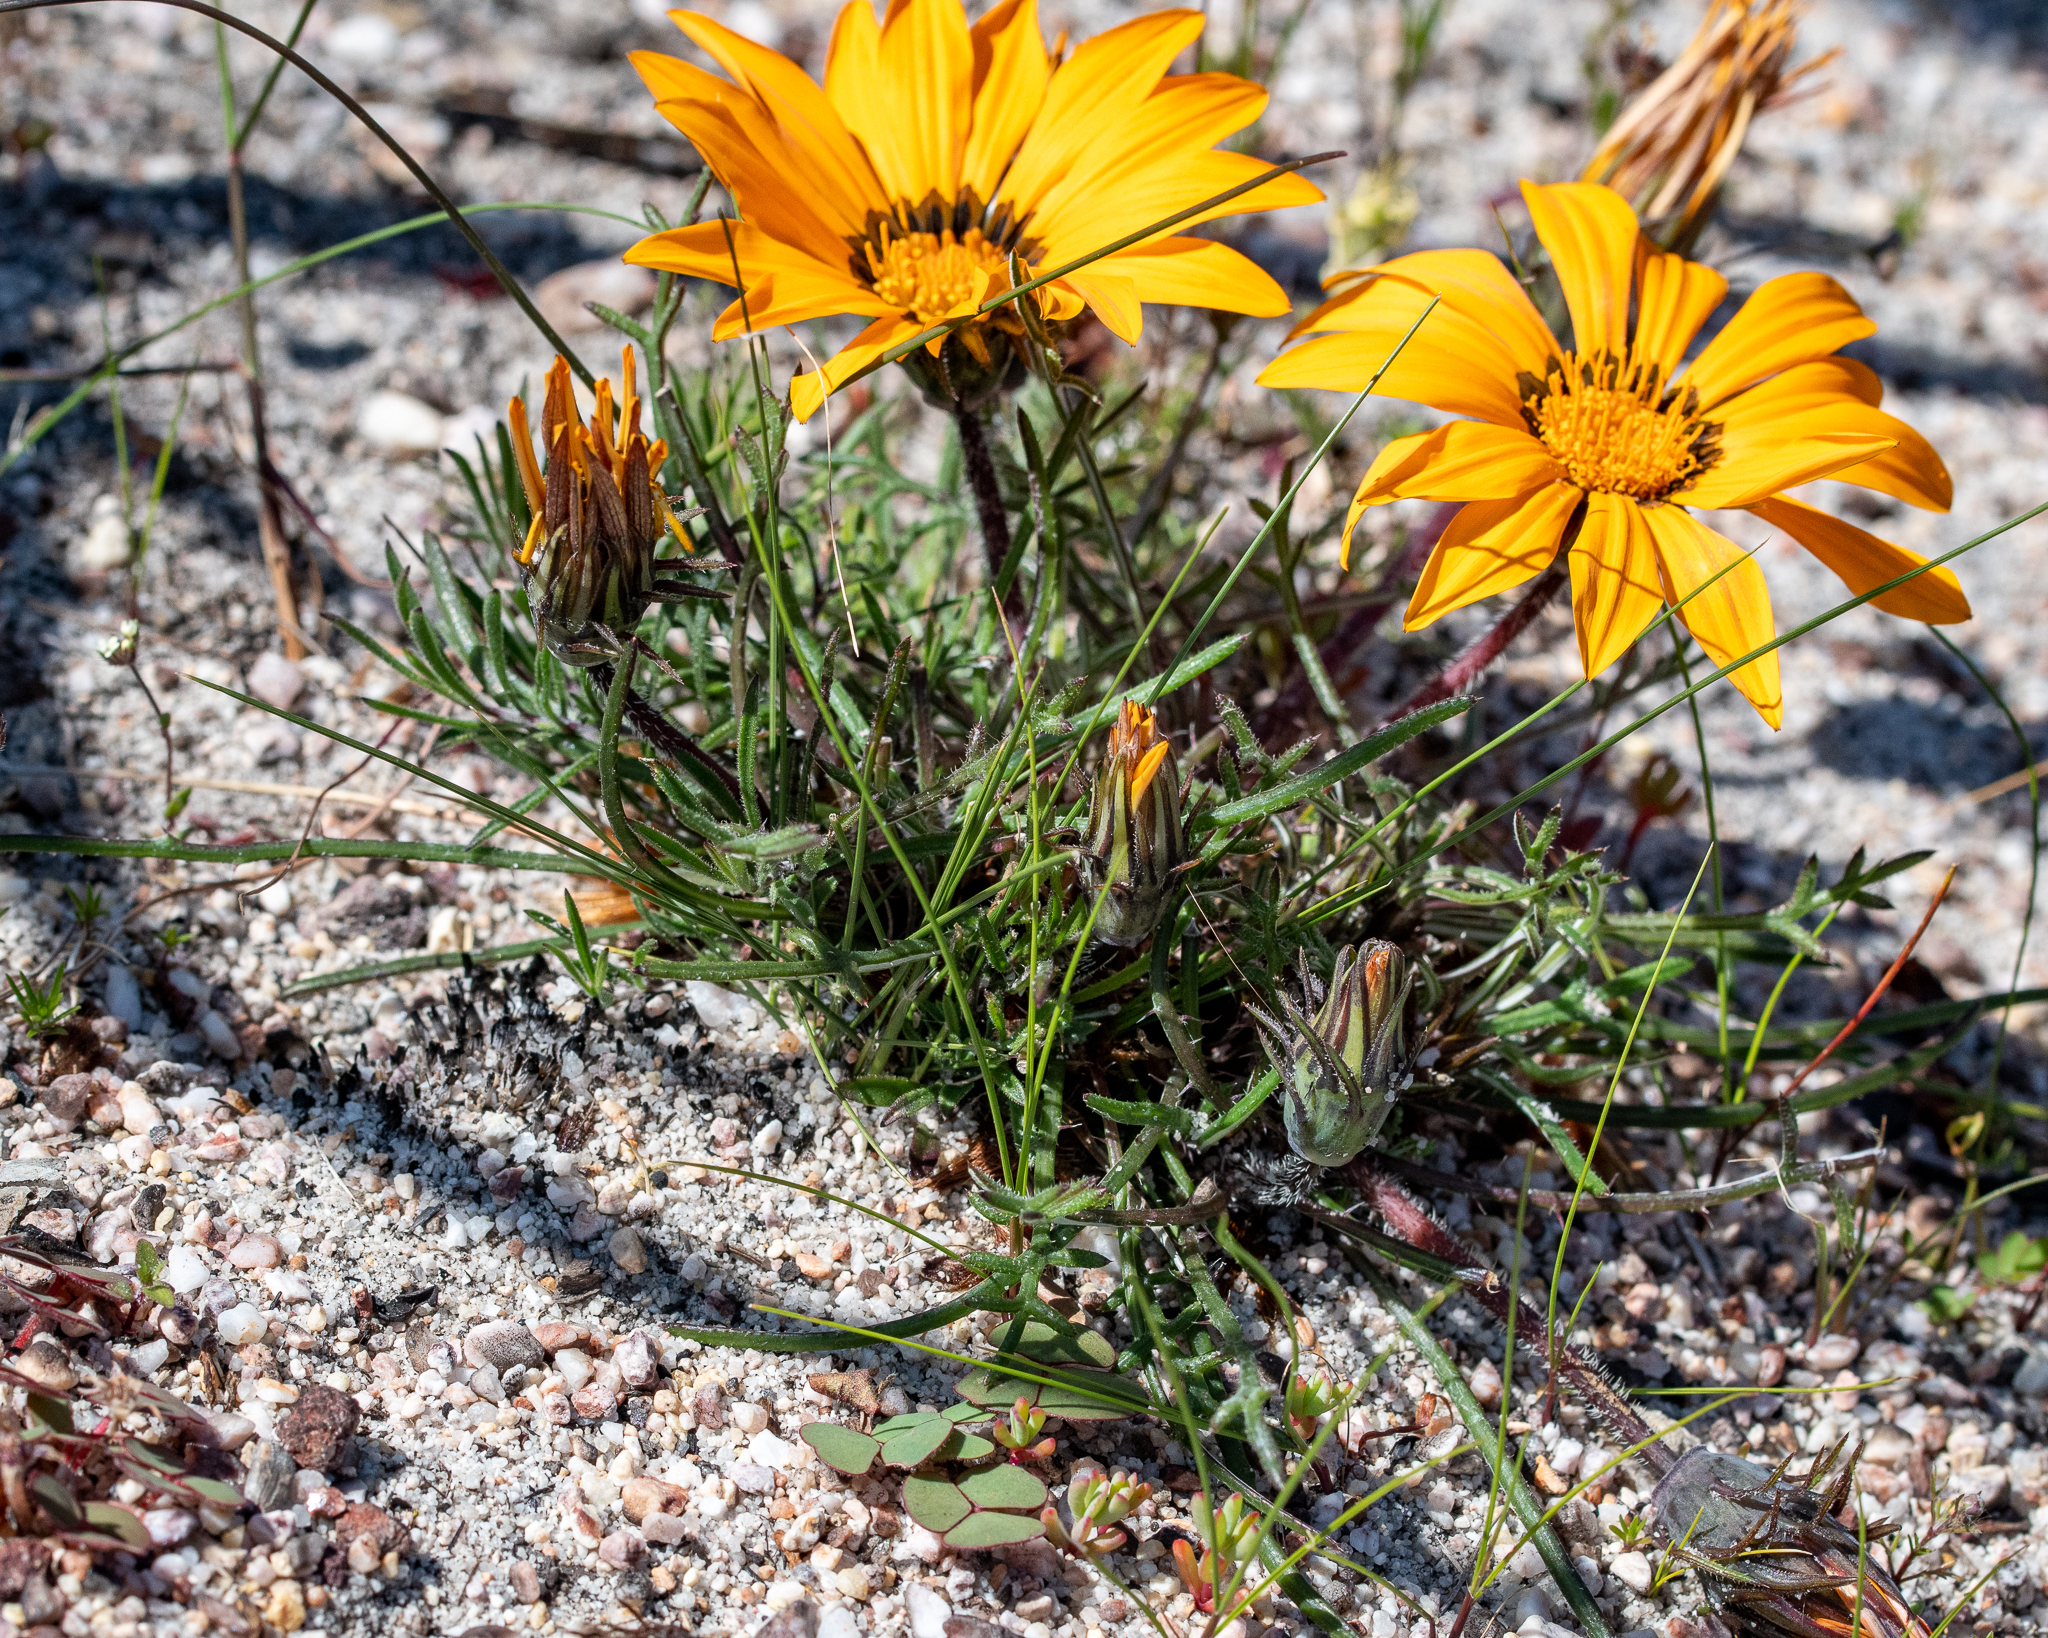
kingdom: Plantae
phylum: Tracheophyta
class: Magnoliopsida
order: Asterales
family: Asteraceae
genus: Gazania
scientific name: Gazania pectinata
